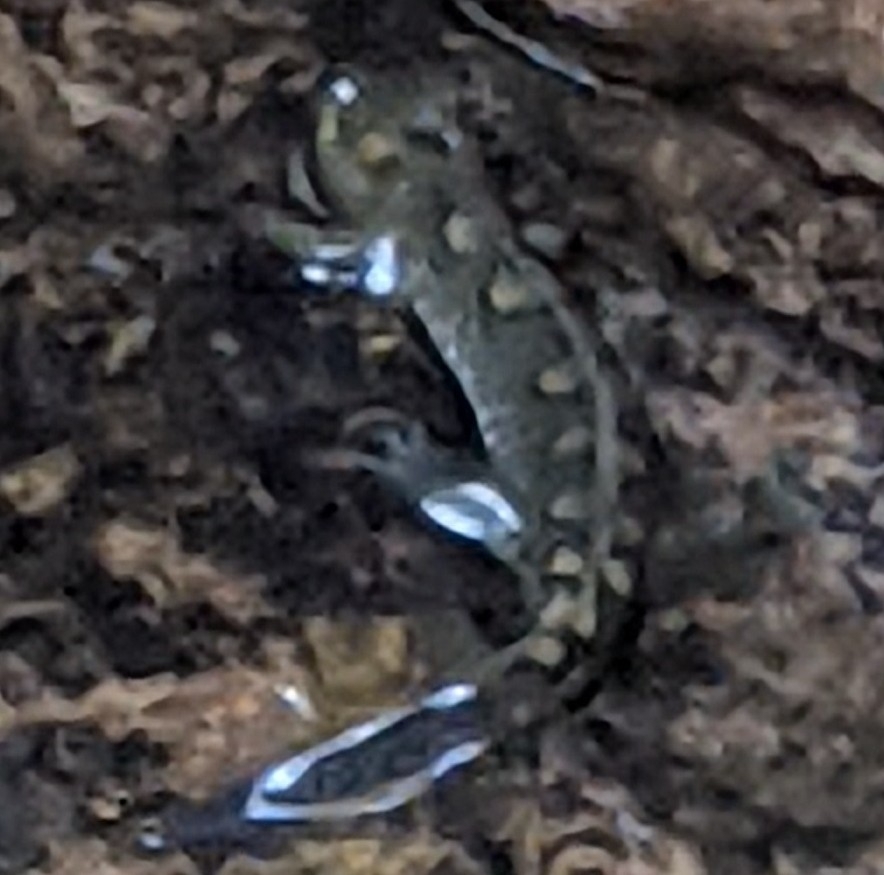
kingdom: Animalia
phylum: Chordata
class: Amphibia
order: Caudata
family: Plethodontidae
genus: Desmognathus
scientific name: Desmognathus monticola
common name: Seal salamander
